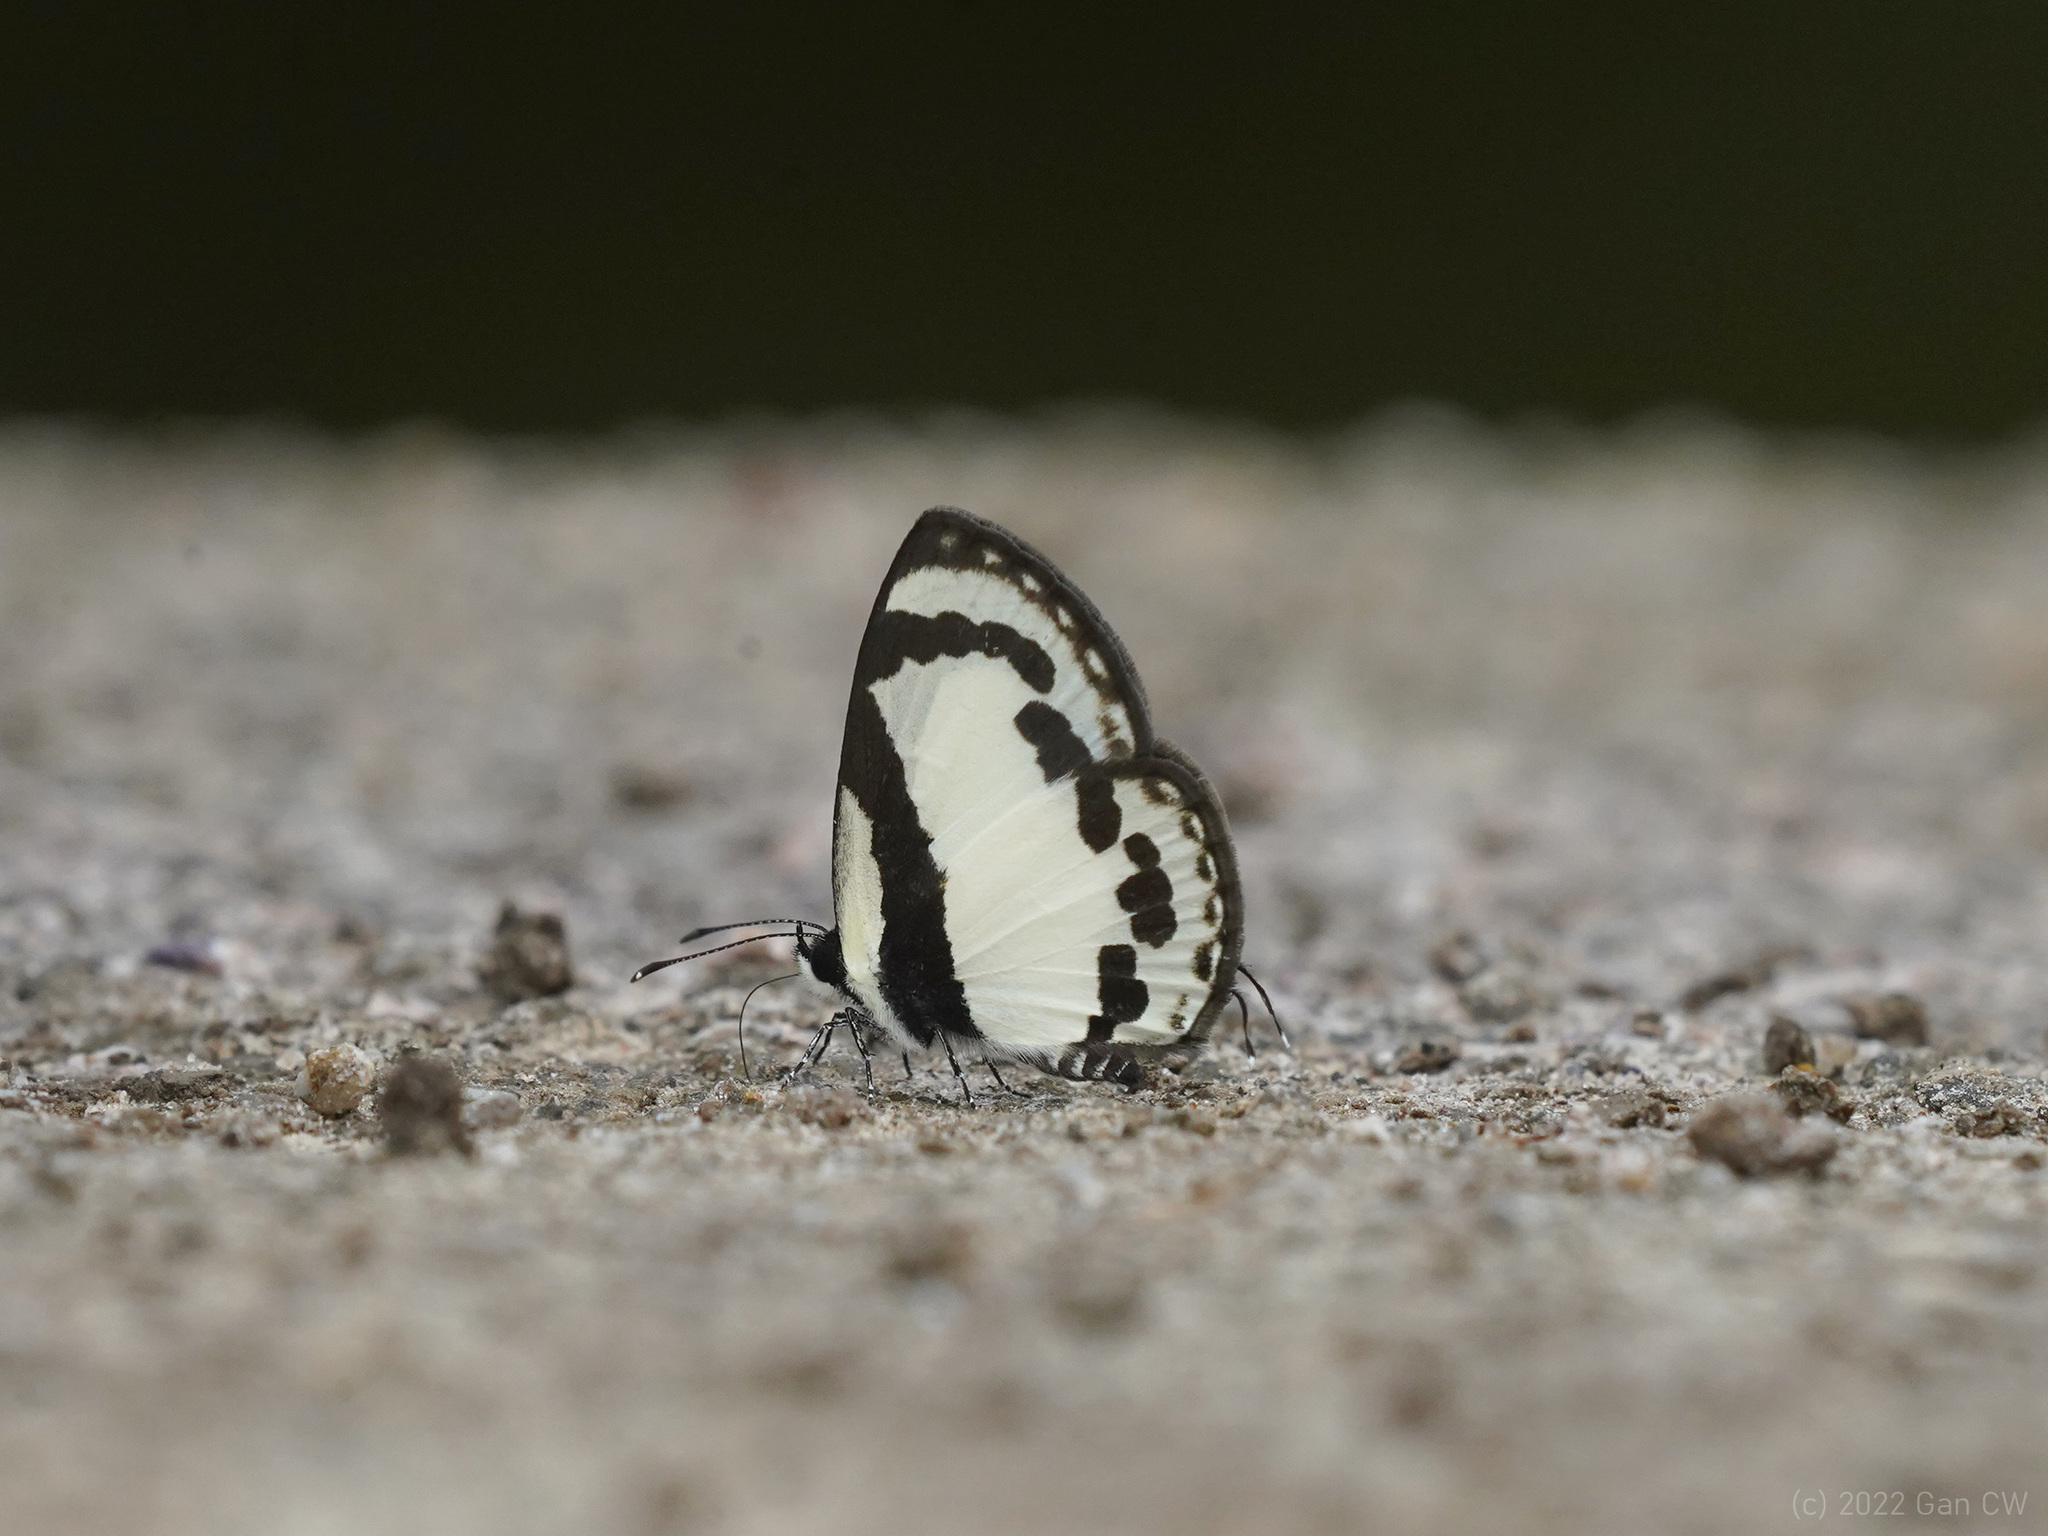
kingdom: Animalia
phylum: Arthropoda
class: Insecta
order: Lepidoptera
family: Lycaenidae
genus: Caleta
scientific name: Caleta roxus
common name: Straight pierrot
